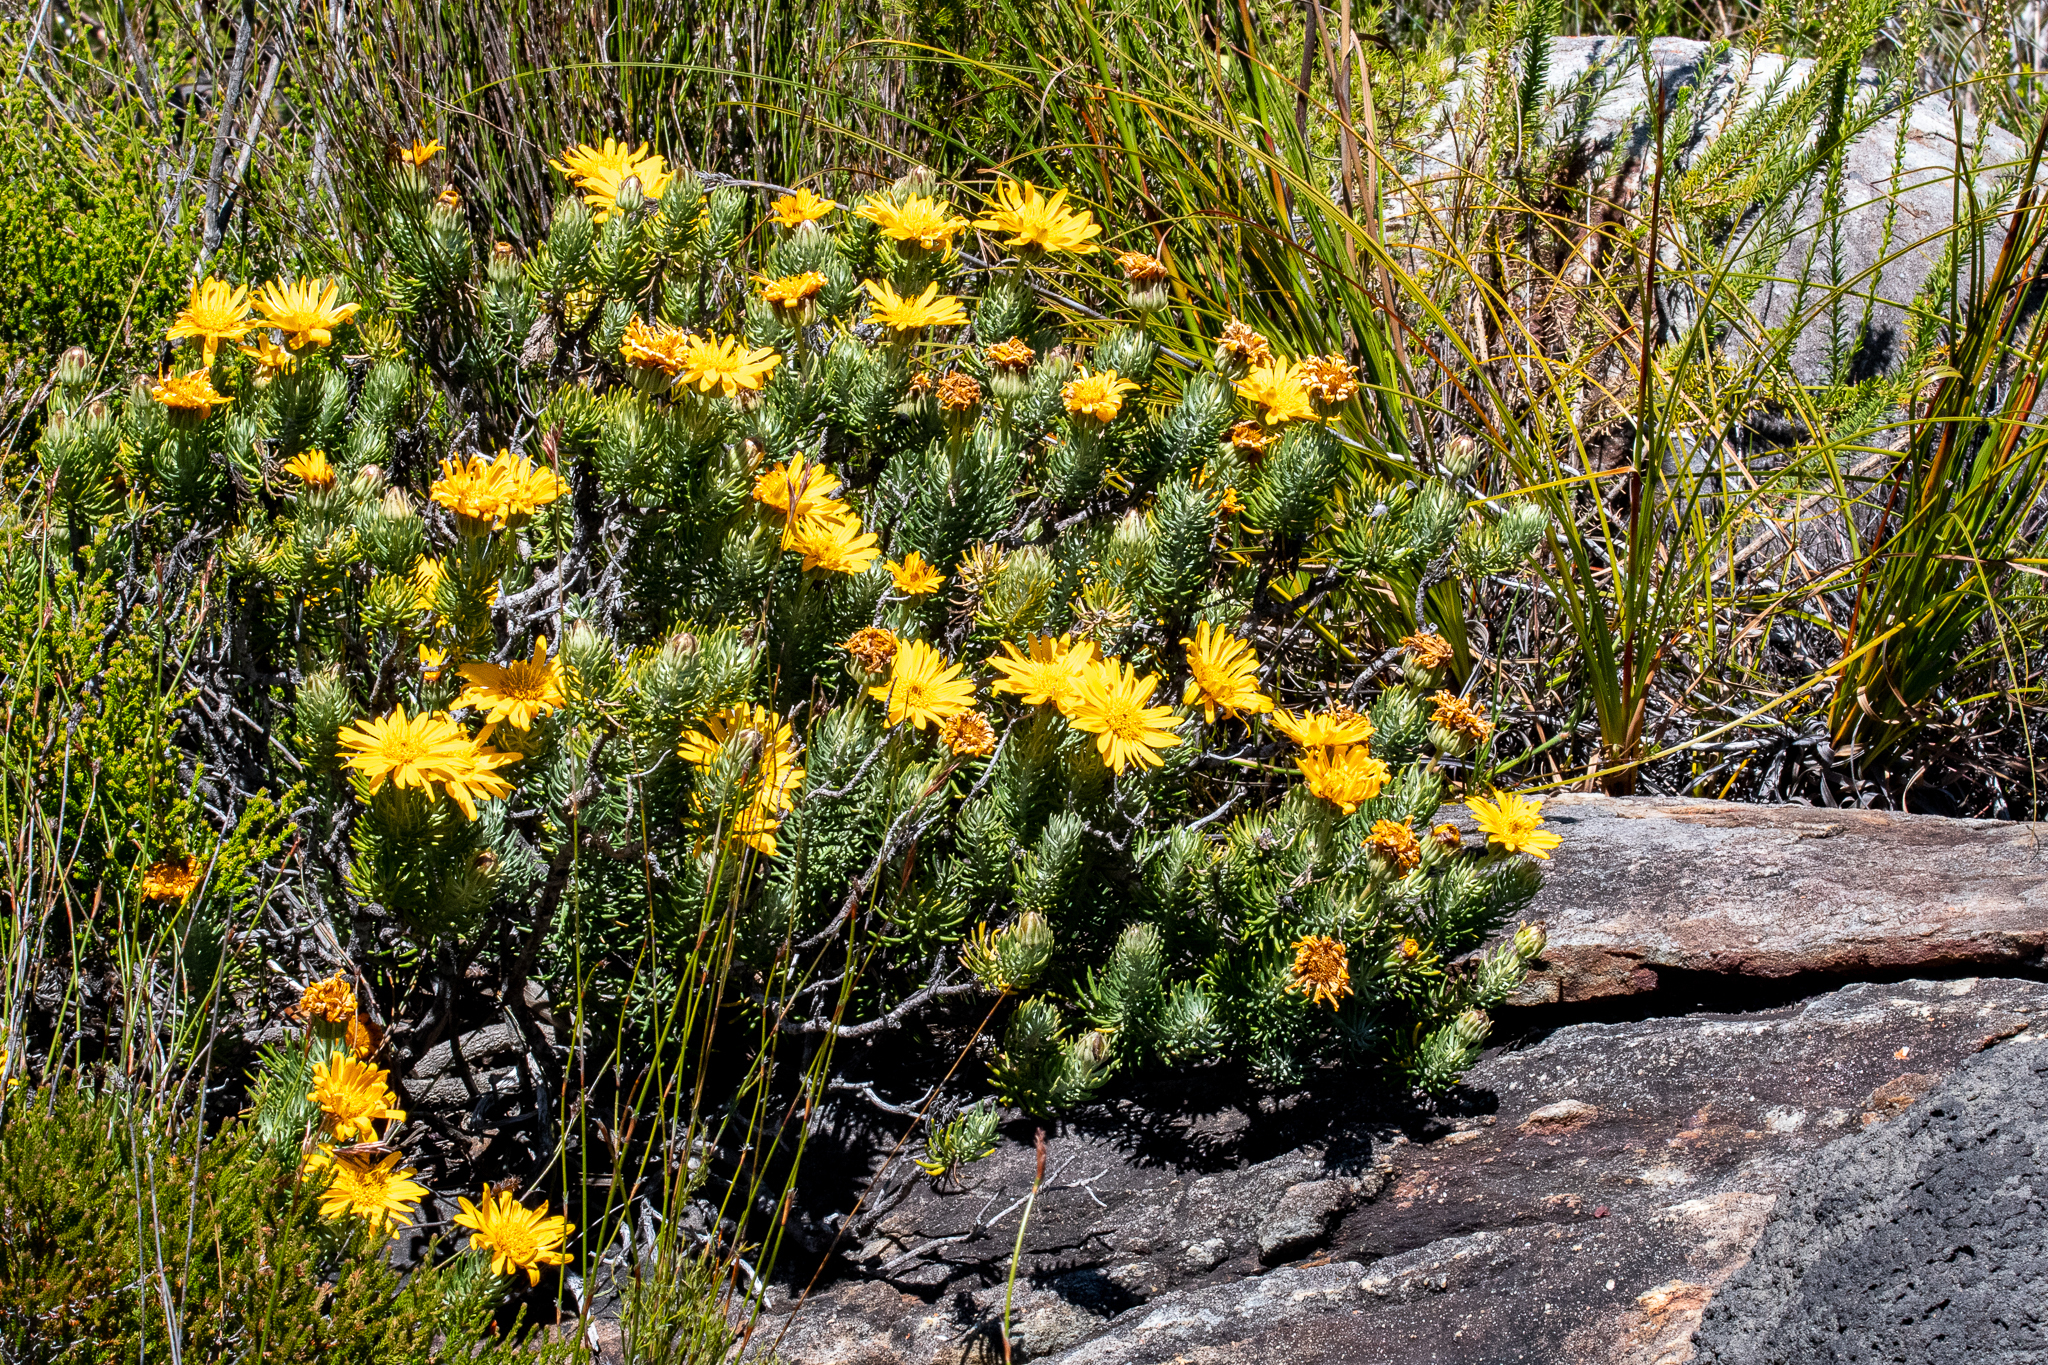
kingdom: Plantae
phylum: Tracheophyta
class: Magnoliopsida
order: Asterales
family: Asteraceae
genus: Heterolepis
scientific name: Heterolepis aliena
